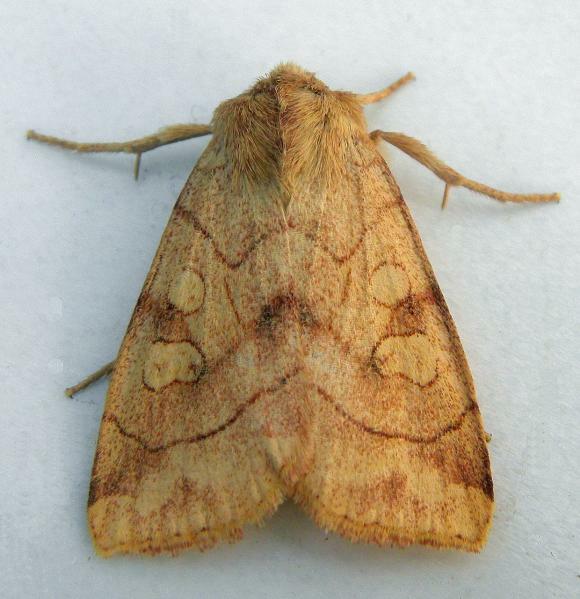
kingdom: Animalia
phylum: Arthropoda
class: Insecta
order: Lepidoptera
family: Noctuidae
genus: Enargia
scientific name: Enargia decolor
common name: Aspen twoleaf tier moth
